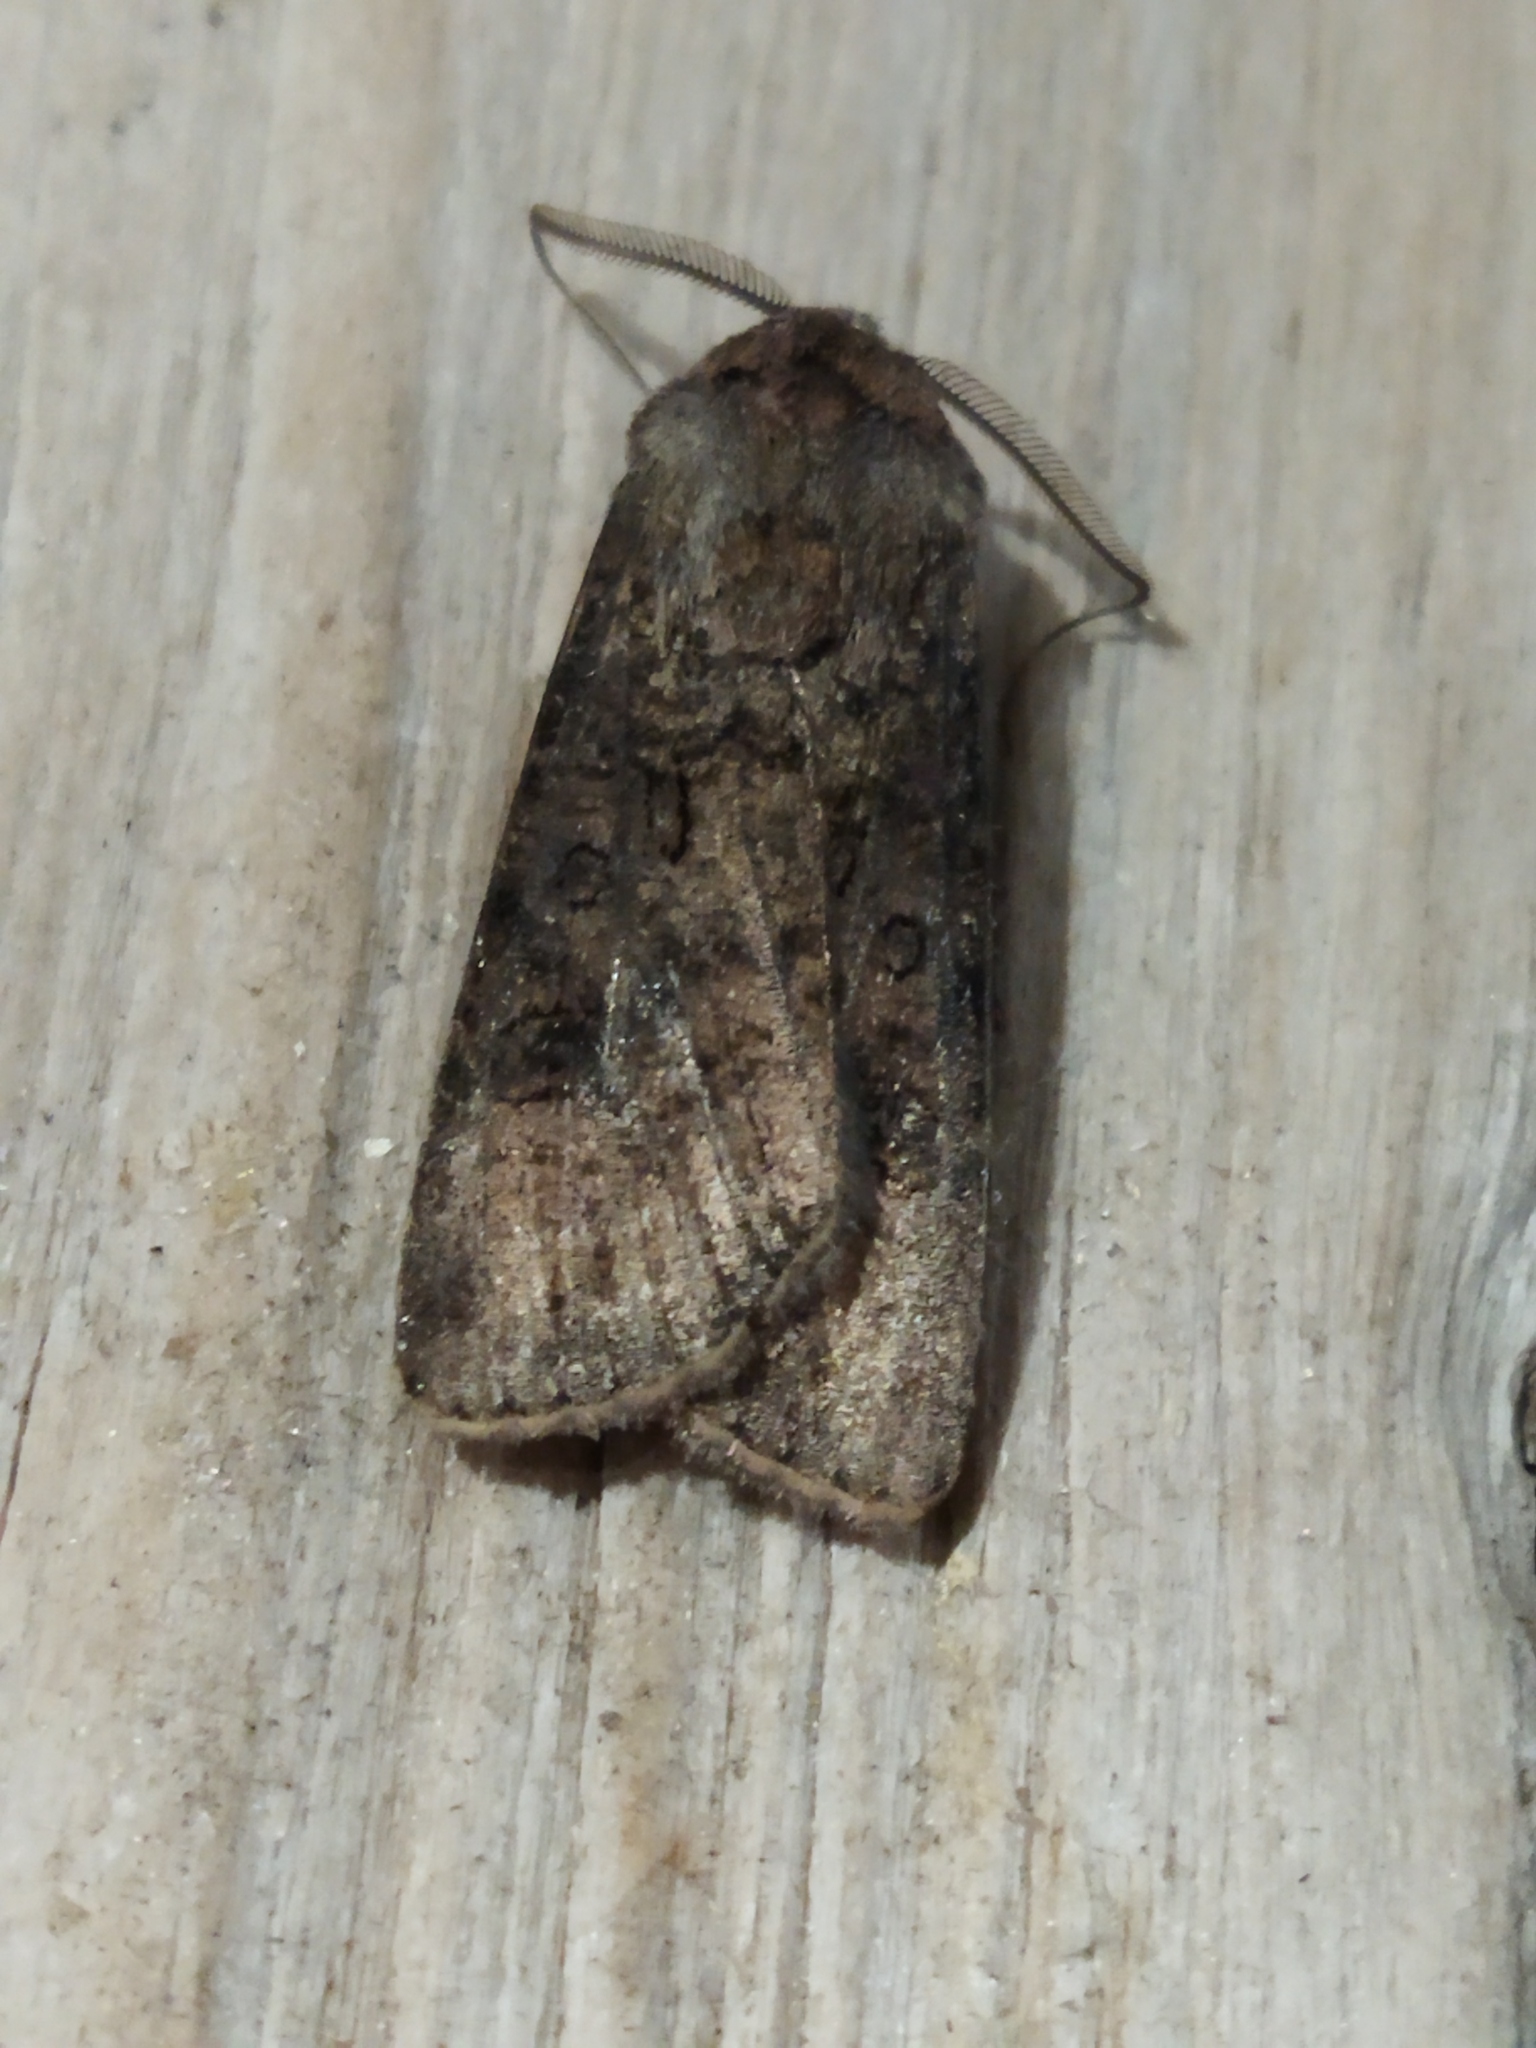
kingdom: Animalia
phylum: Arthropoda
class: Insecta
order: Lepidoptera
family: Noctuidae
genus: Agrotis
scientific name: Agrotis segetum
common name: Turnip moth
